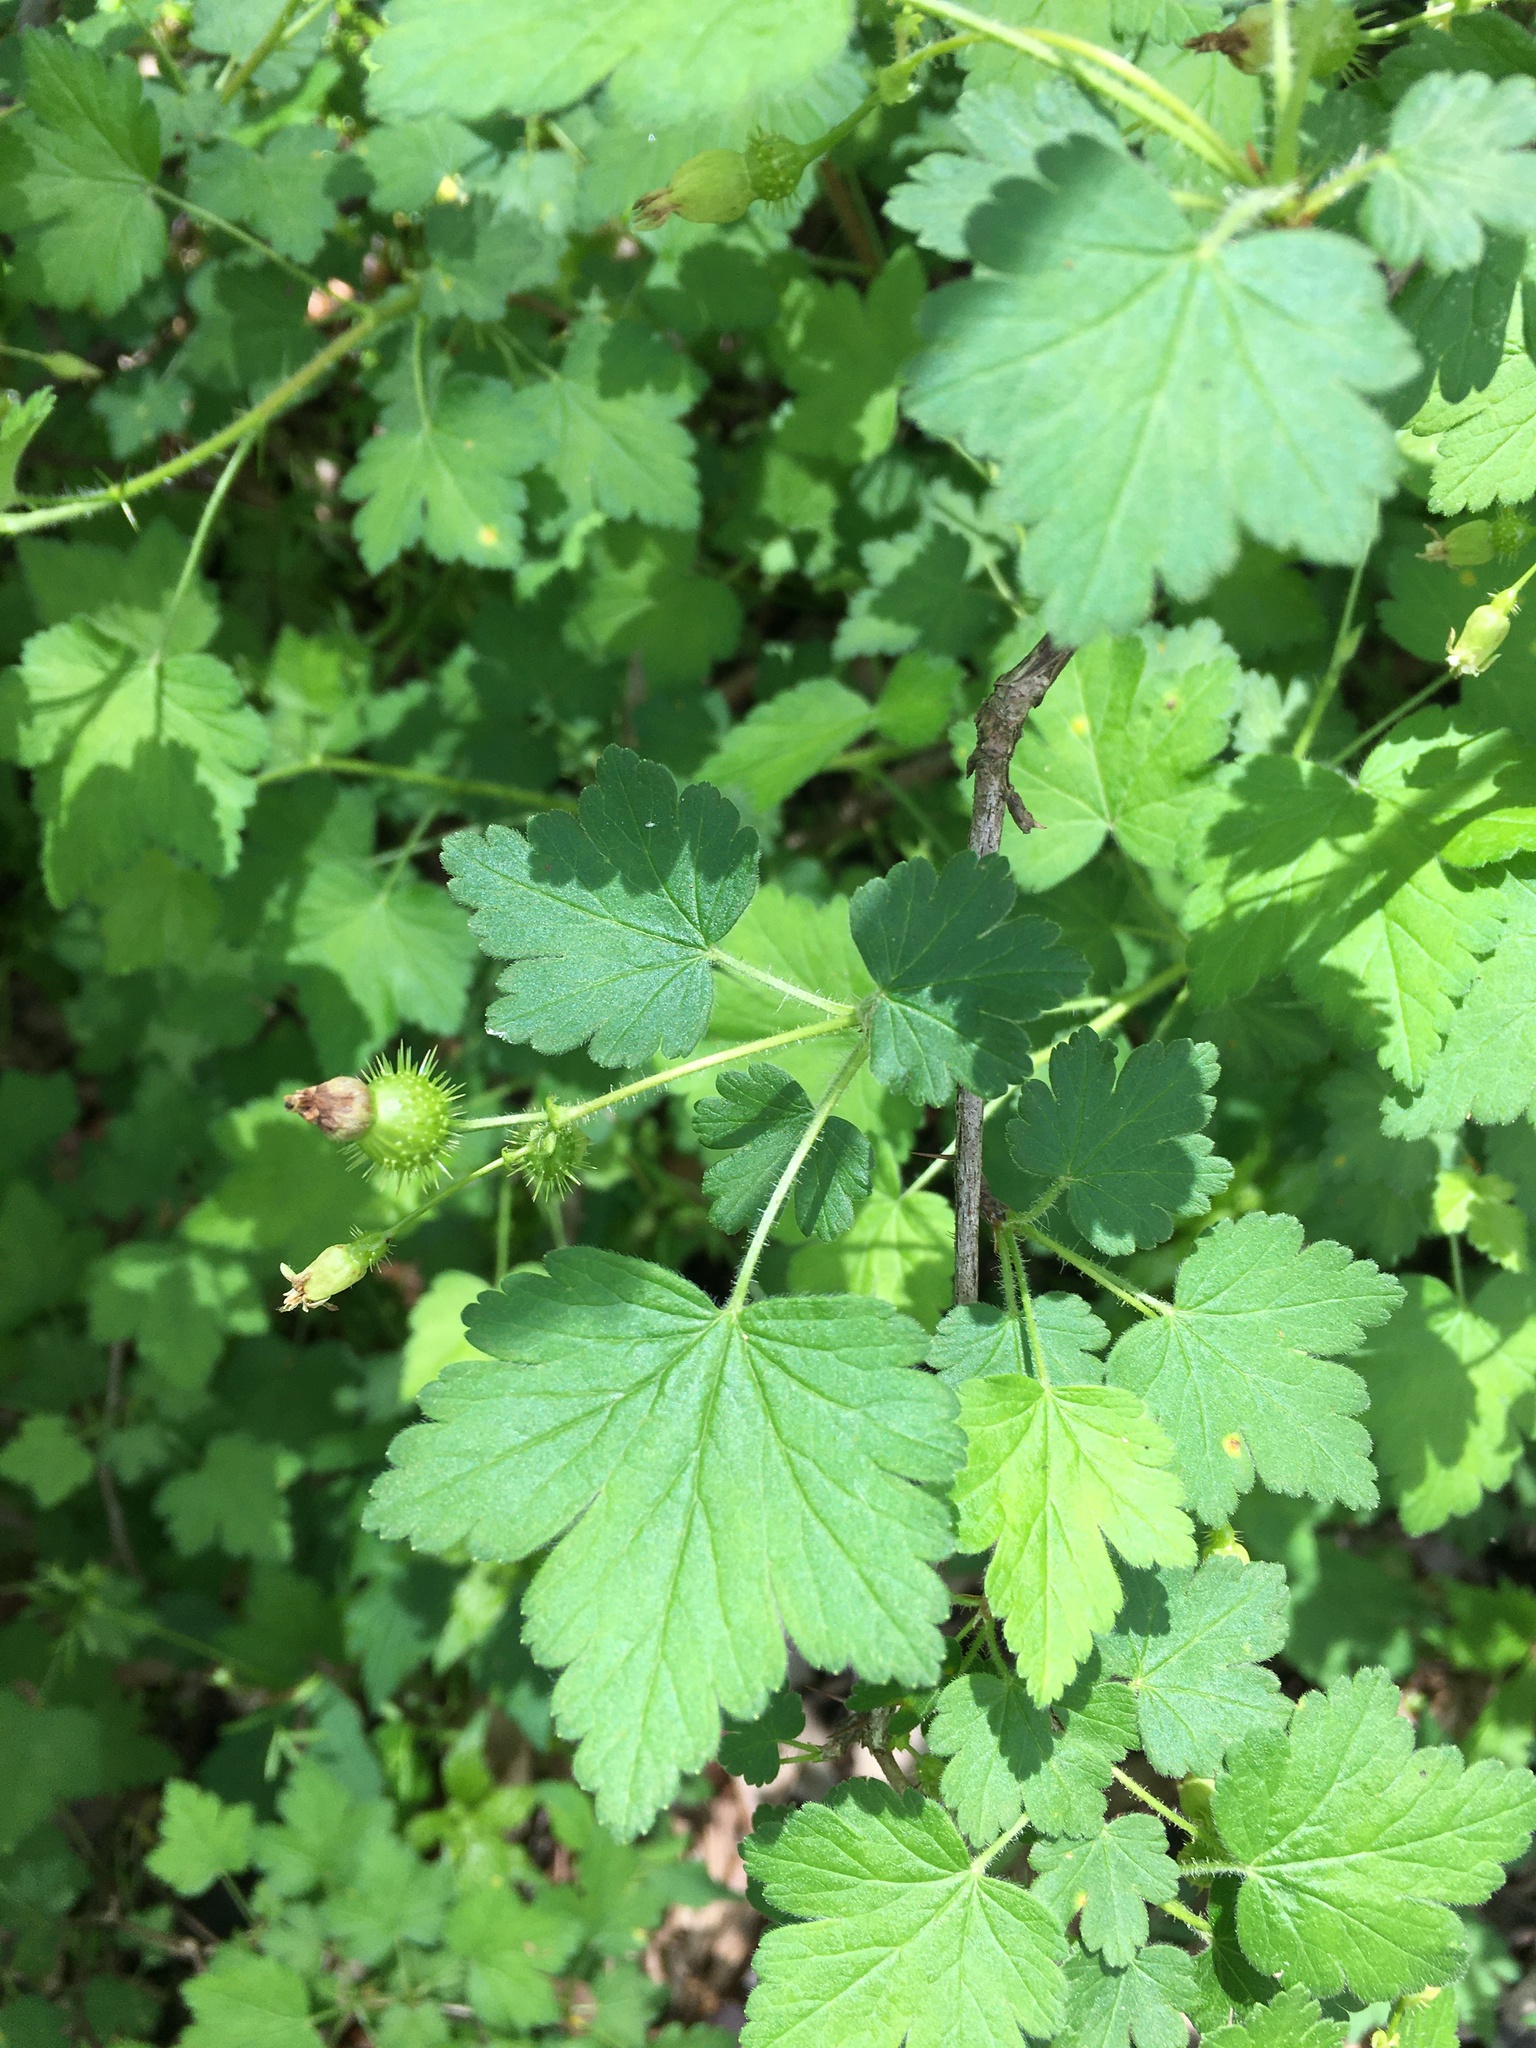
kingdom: Plantae
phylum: Tracheophyta
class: Magnoliopsida
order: Saxifragales
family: Grossulariaceae
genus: Ribes
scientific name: Ribes cynosbati
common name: American gooseberry
